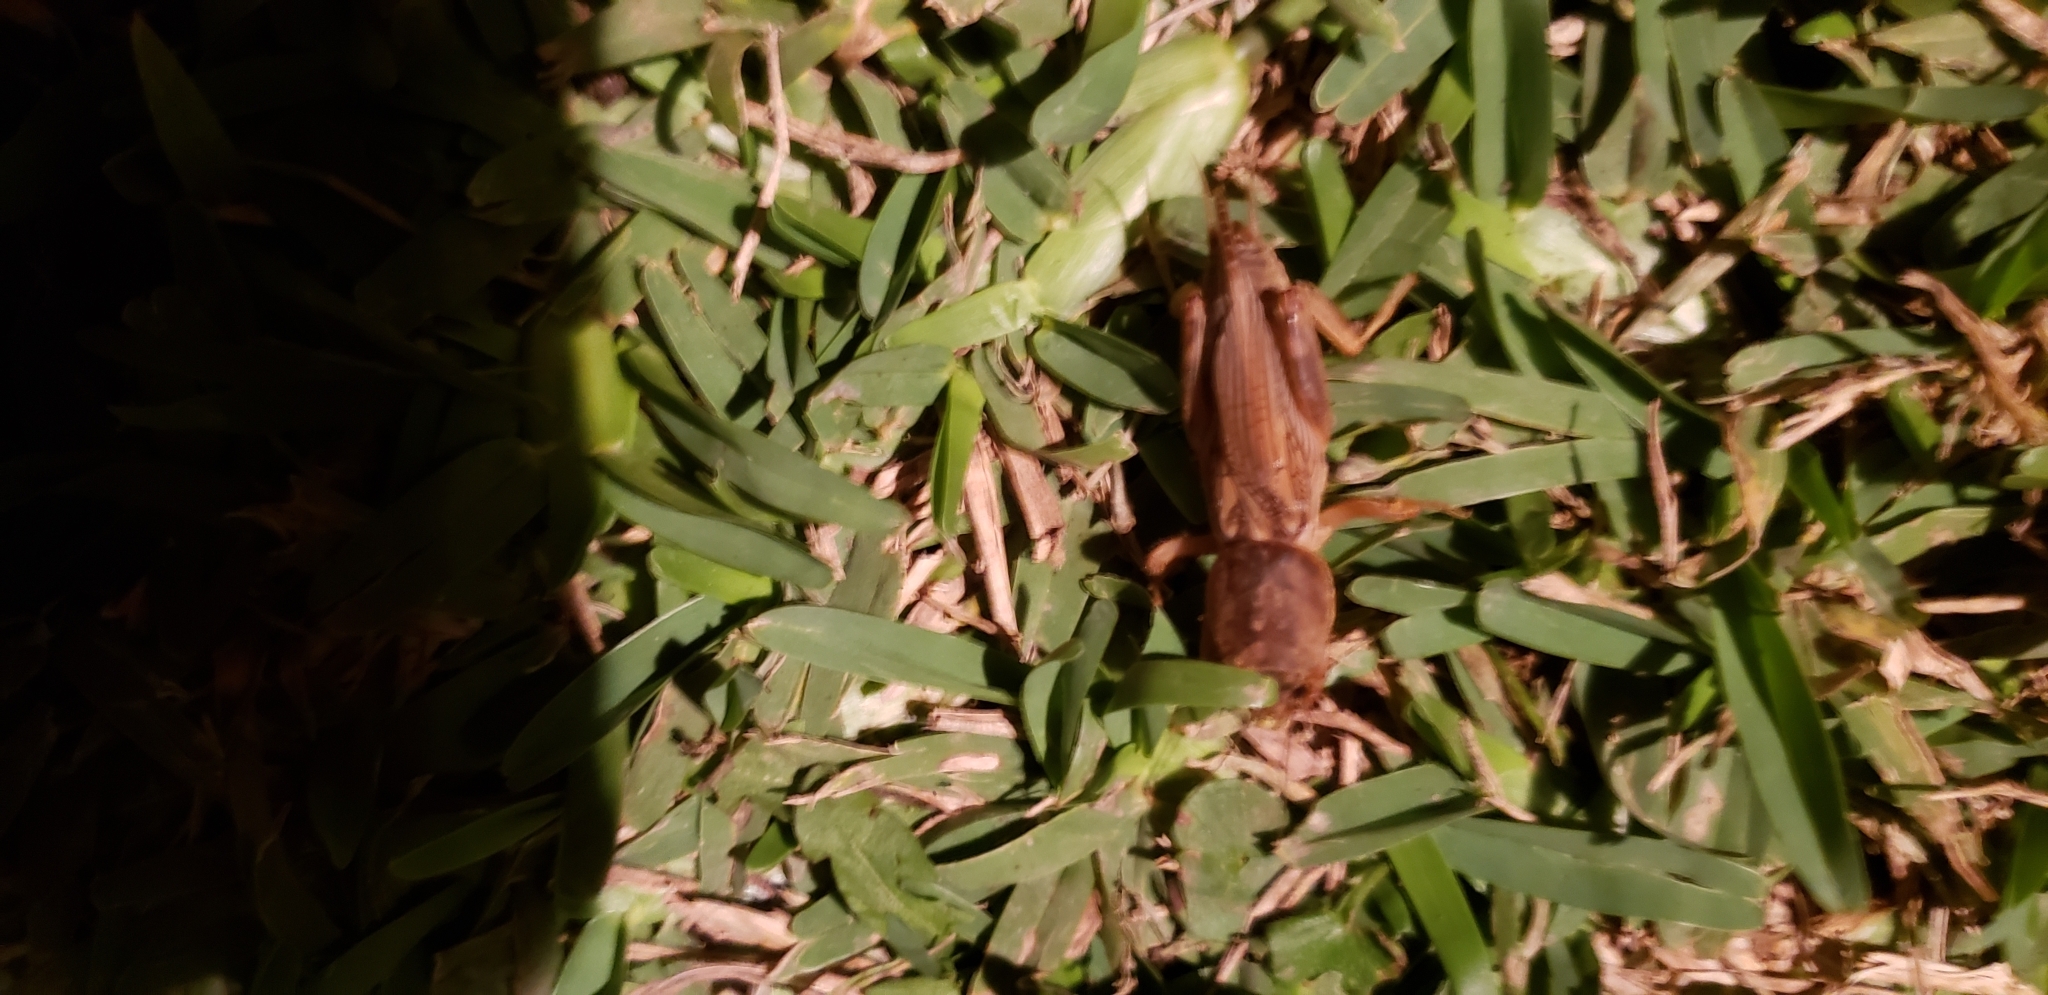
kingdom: Animalia
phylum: Arthropoda
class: Insecta
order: Orthoptera
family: Gryllotalpidae
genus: Neoscapteriscus
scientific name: Neoscapteriscus vicinus
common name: Tawny mole cricket
